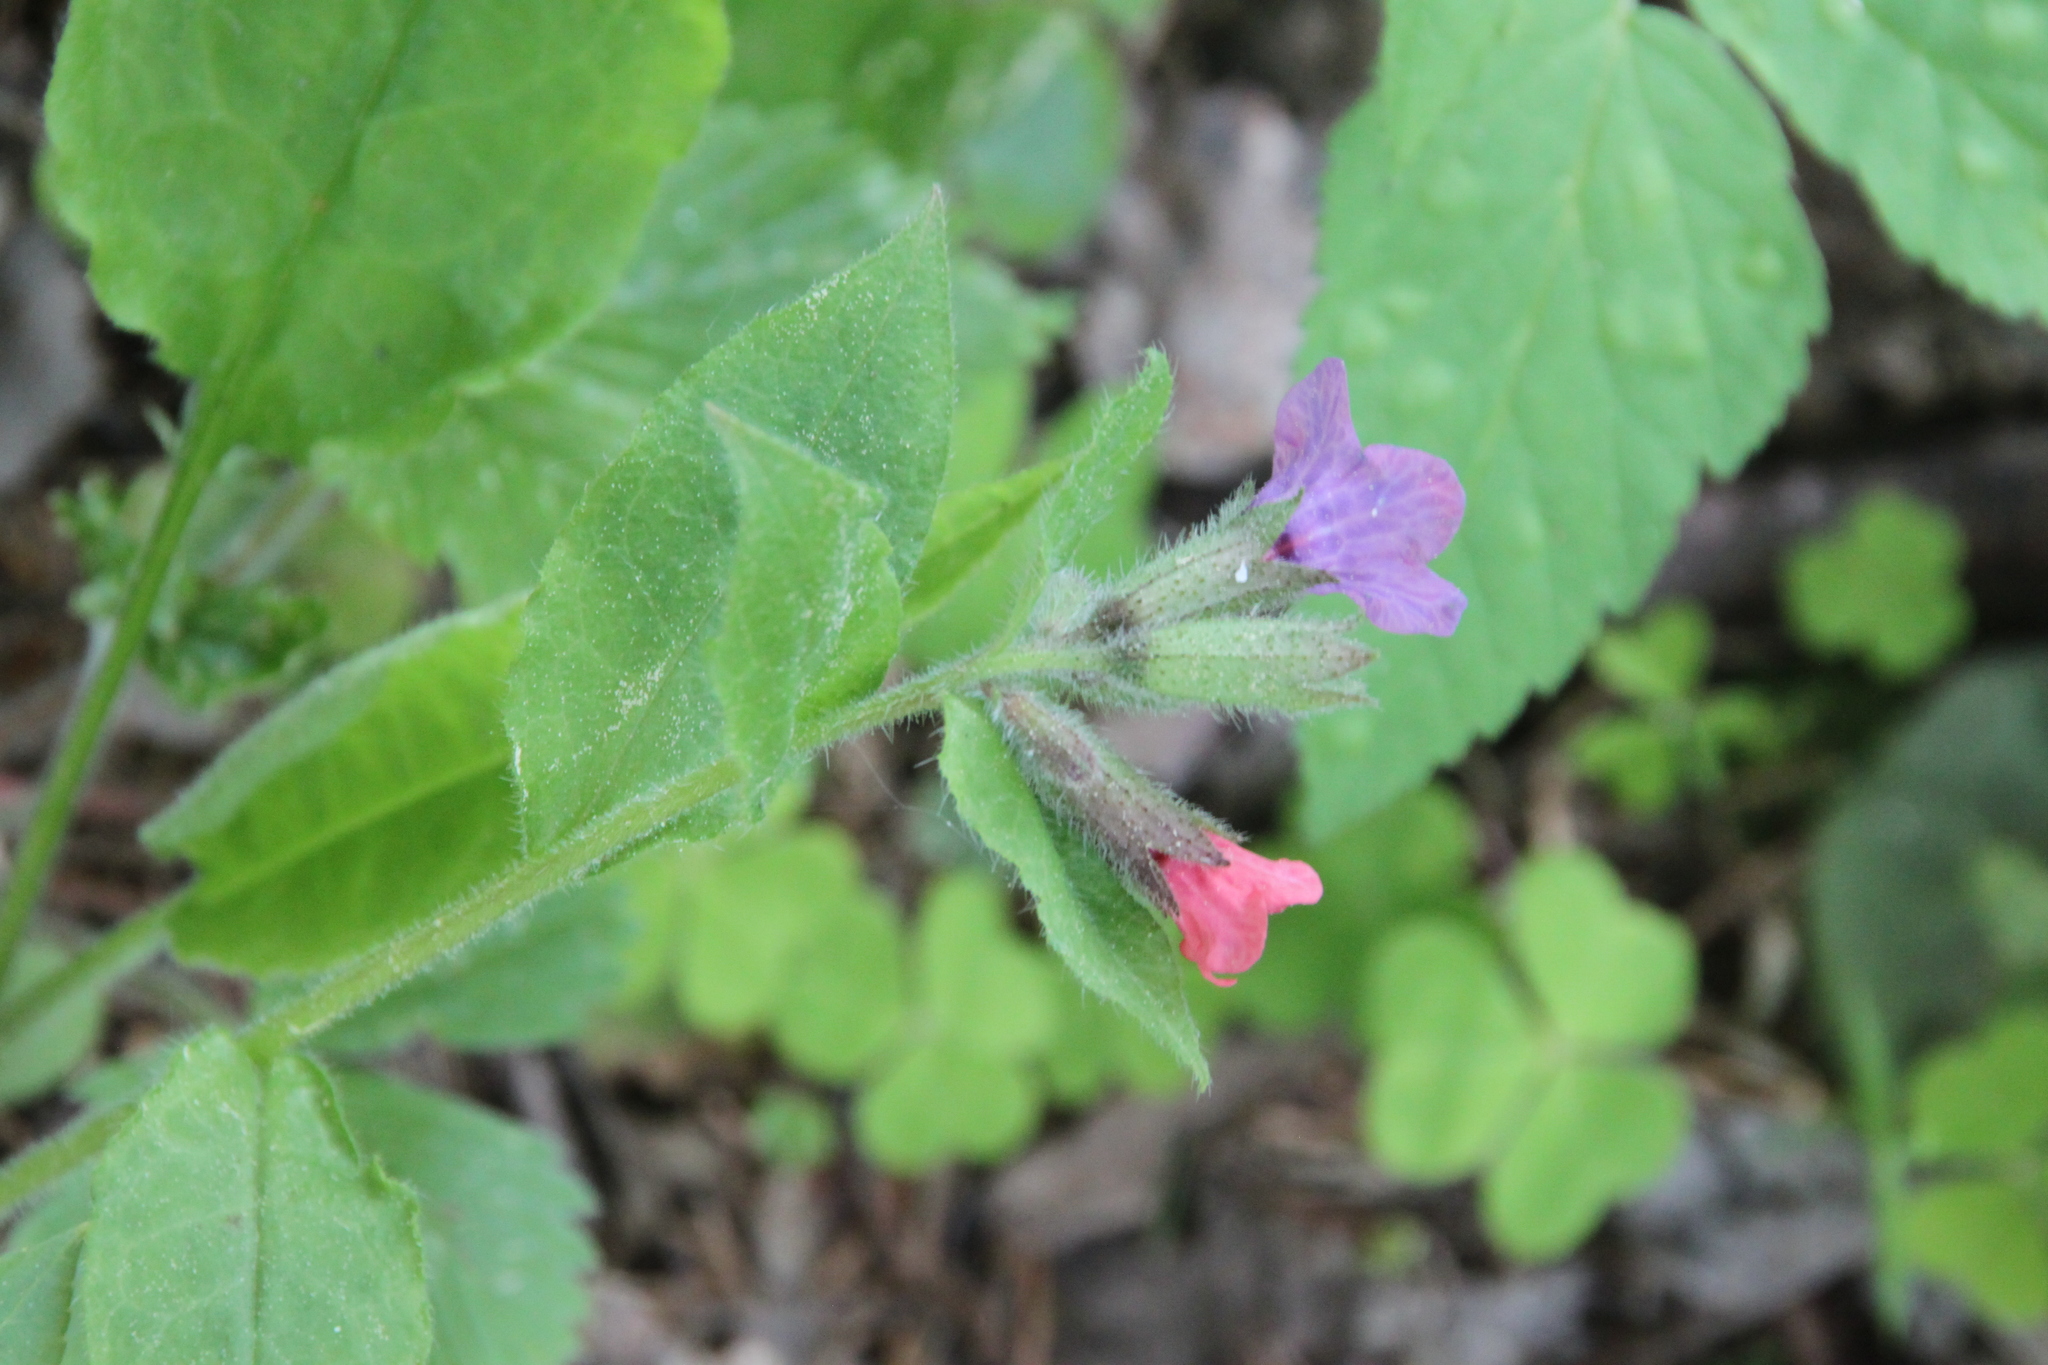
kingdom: Plantae
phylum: Tracheophyta
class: Magnoliopsida
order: Boraginales
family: Boraginaceae
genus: Pulmonaria
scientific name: Pulmonaria obscura
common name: Suffolk lungwort
